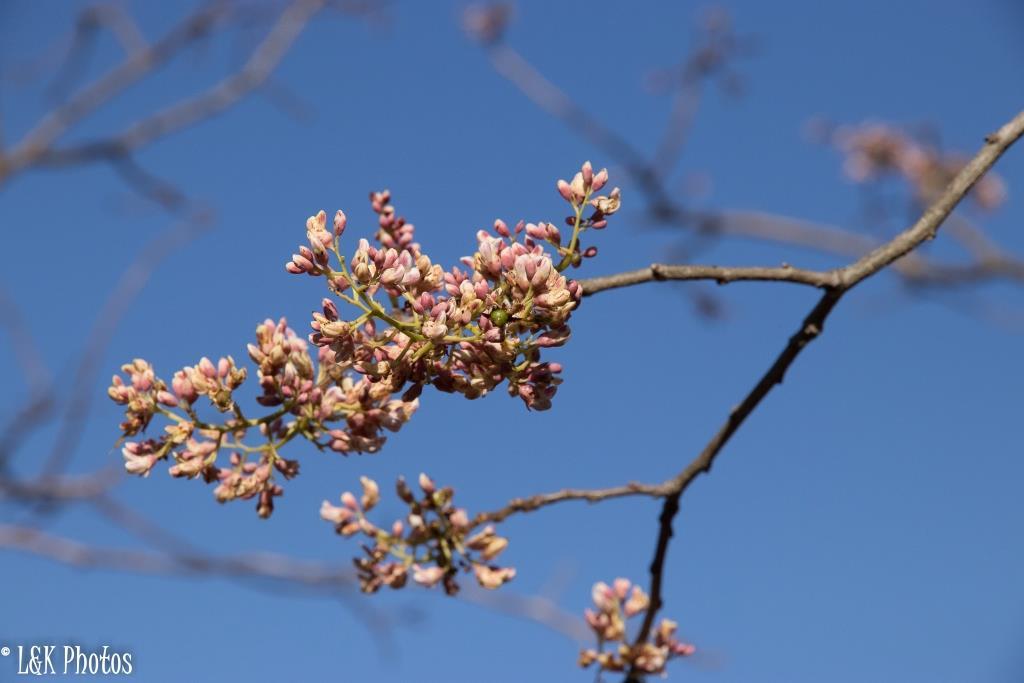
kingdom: Plantae
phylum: Tracheophyta
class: Magnoliopsida
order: Fabales
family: Fabaceae
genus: Dalbergia
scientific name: Dalbergia pervillei
